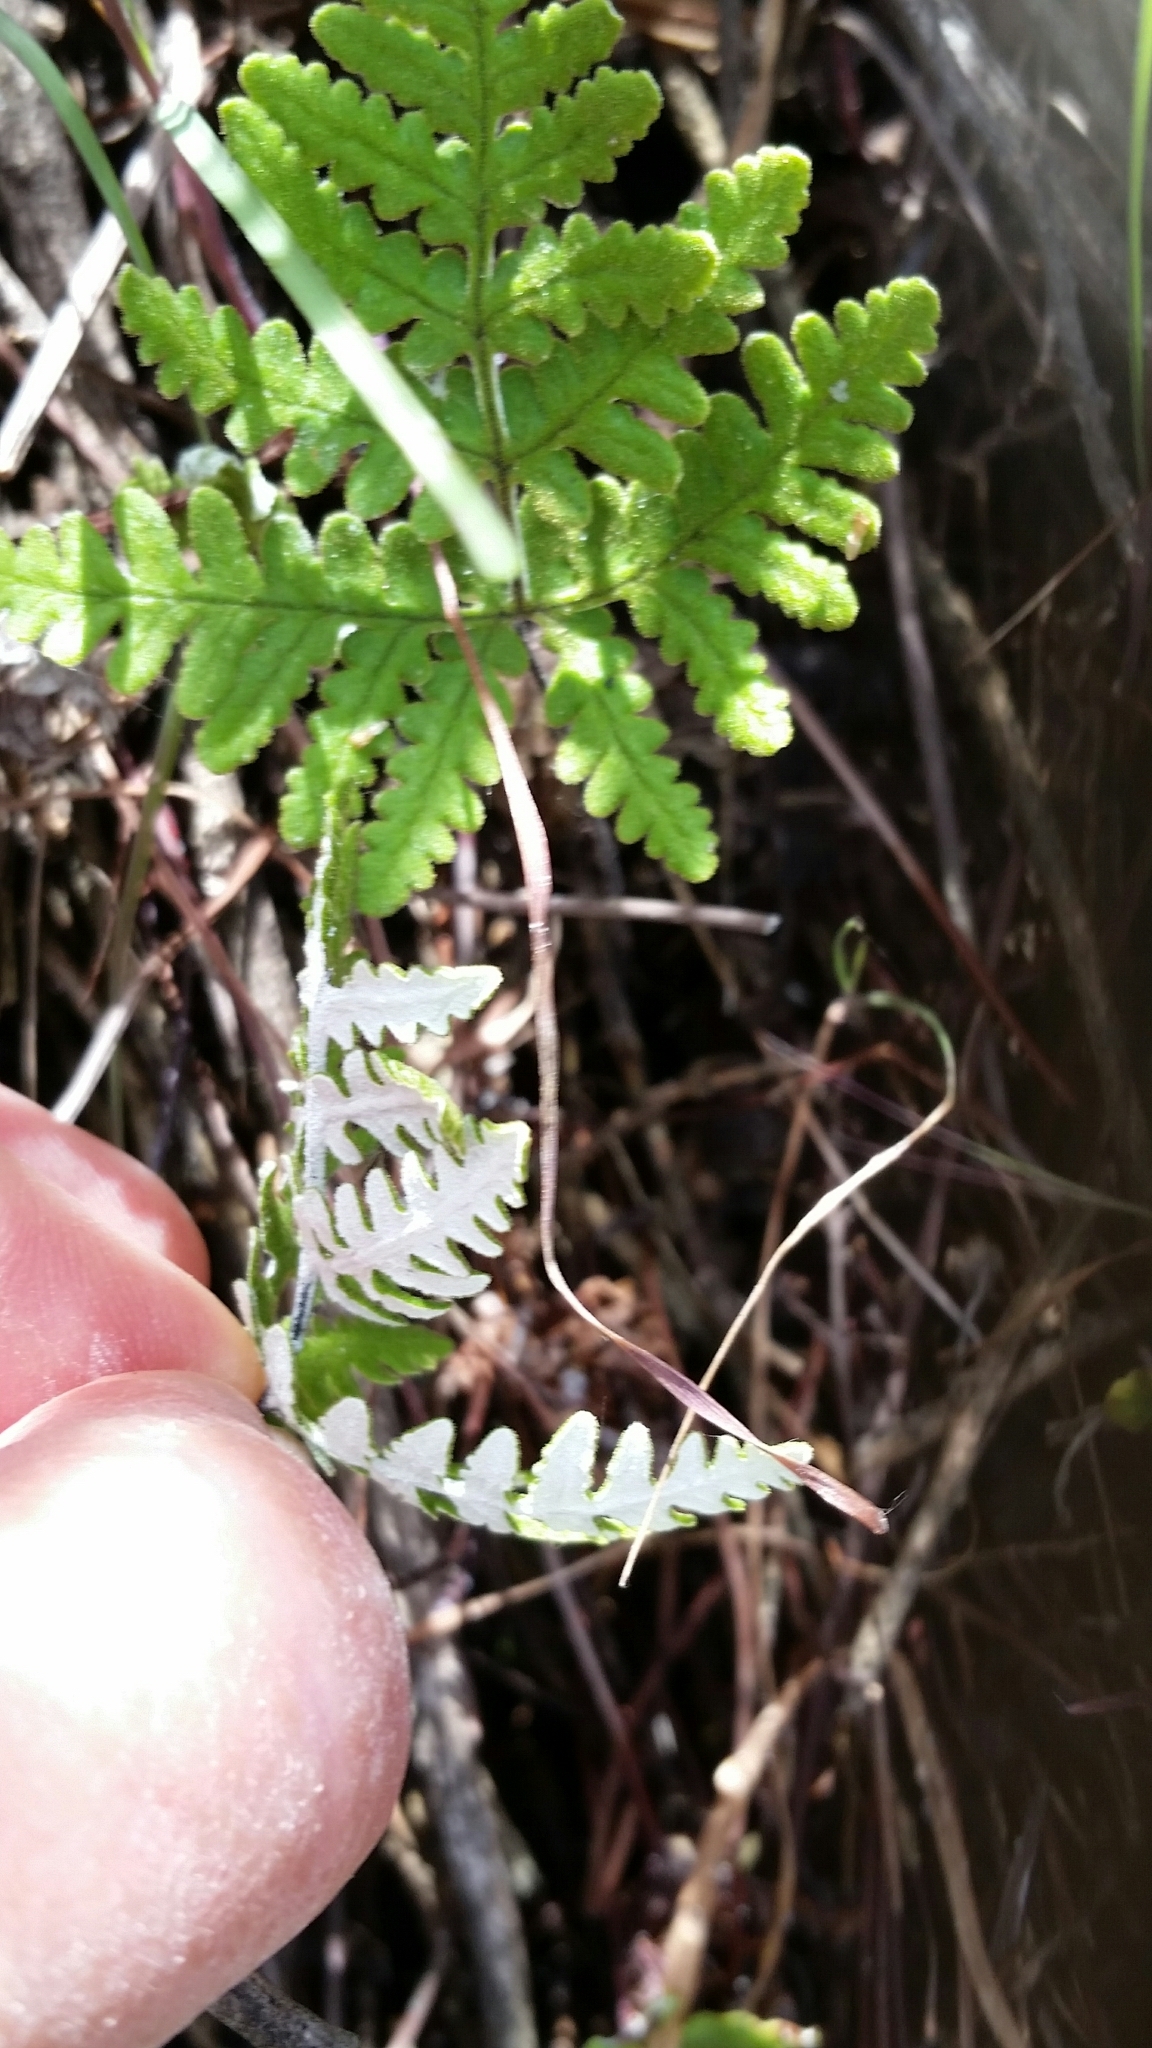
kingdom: Plantae
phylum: Tracheophyta
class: Polypodiopsida
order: Polypodiales
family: Pteridaceae
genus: Pentagramma
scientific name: Pentagramma glanduloviscida
